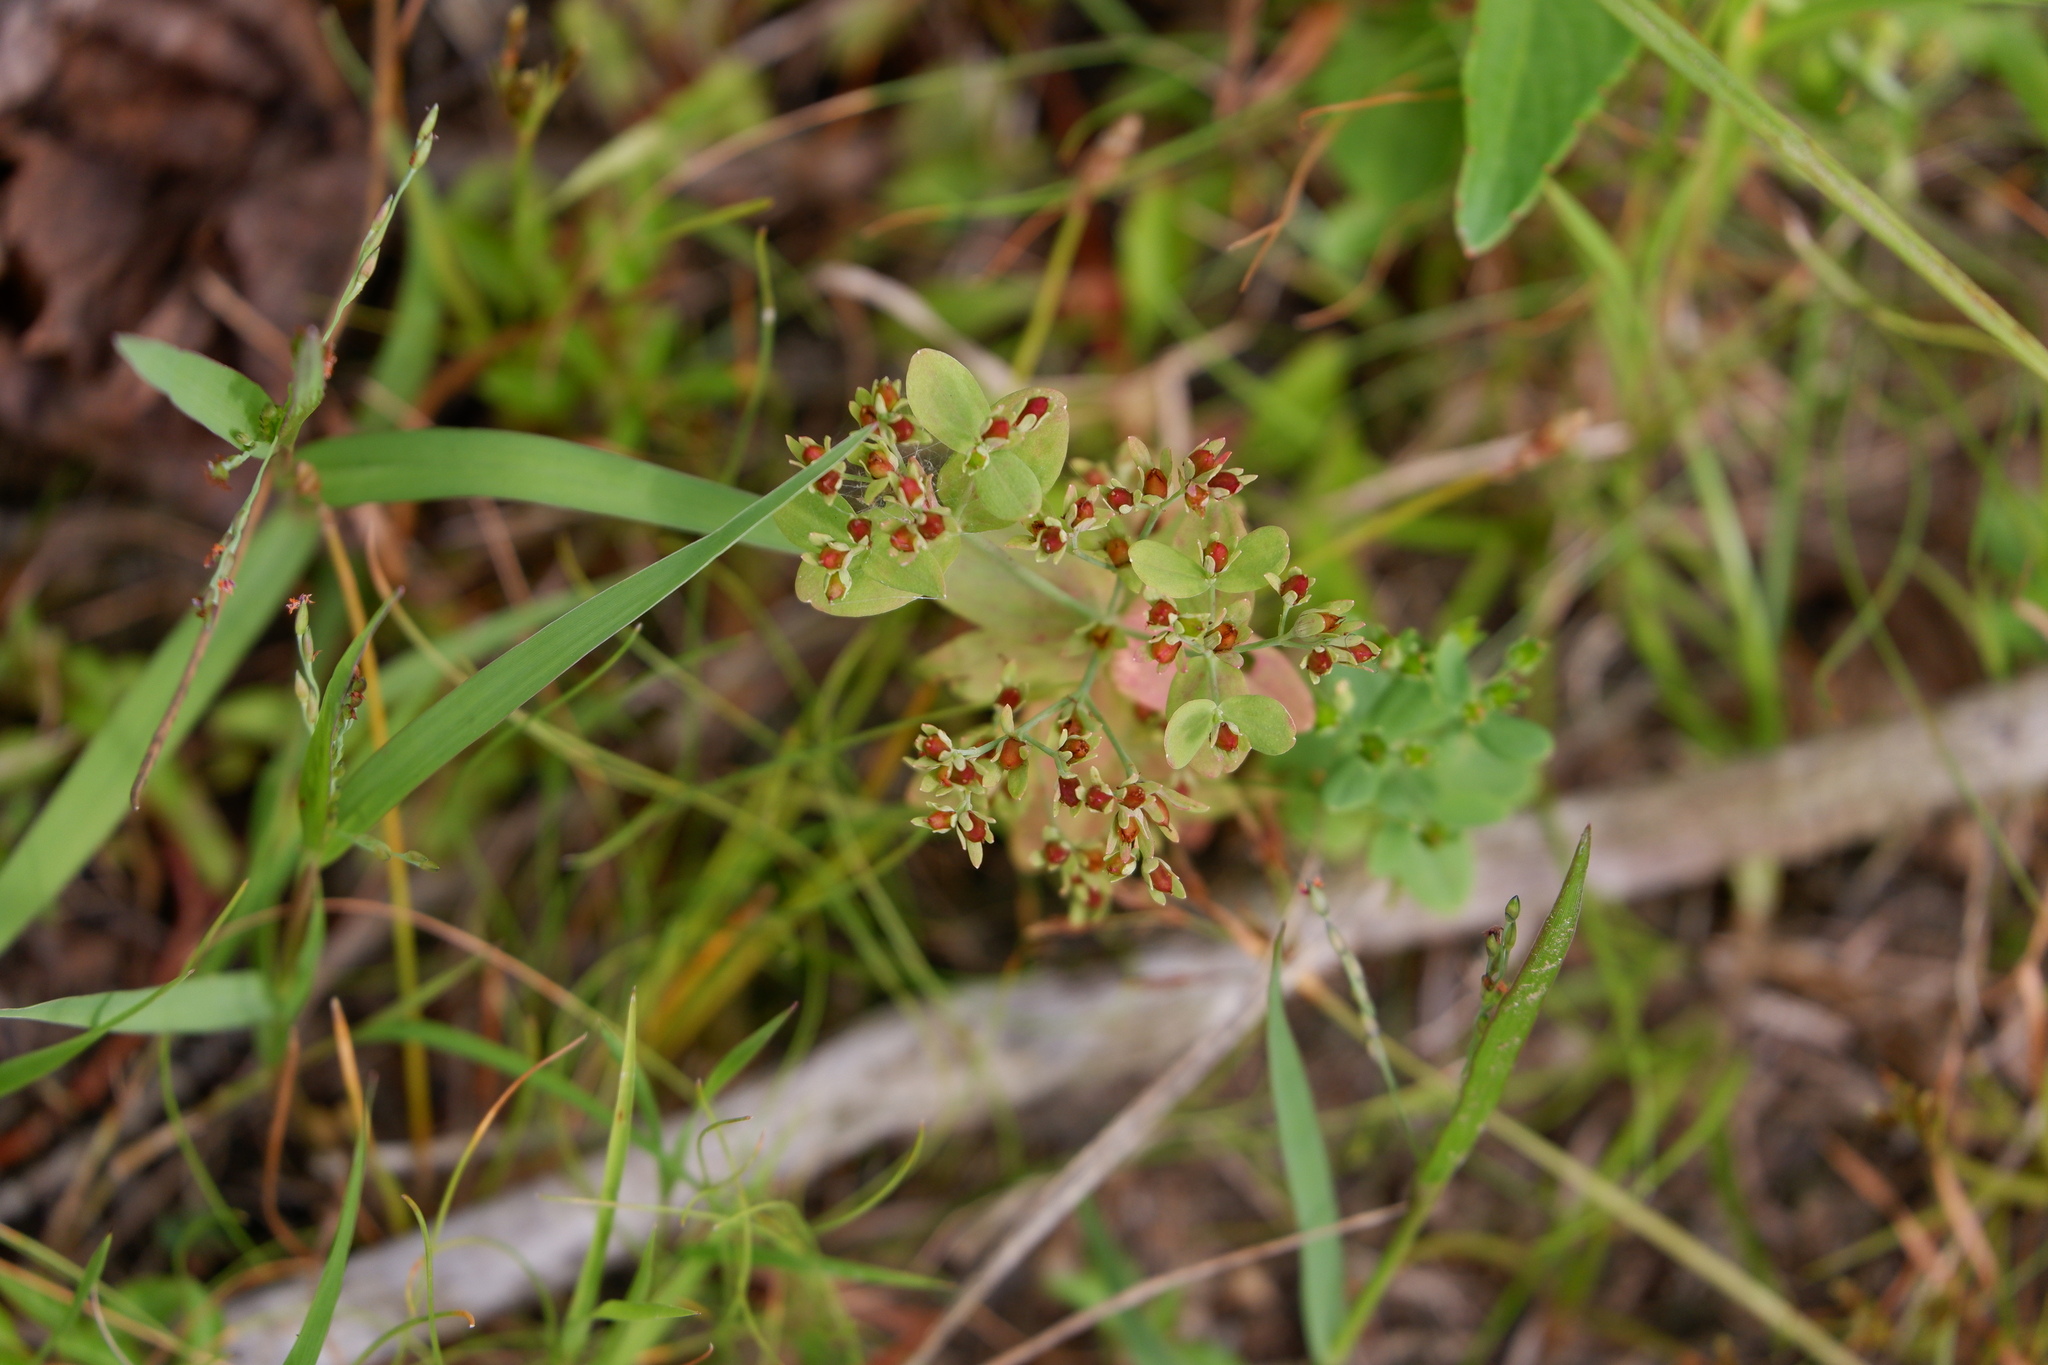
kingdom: Plantae
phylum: Tracheophyta
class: Magnoliopsida
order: Malpighiales
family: Hypericaceae
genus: Hypericum
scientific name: Hypericum mutilum
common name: Dwarf st. john's-wort
